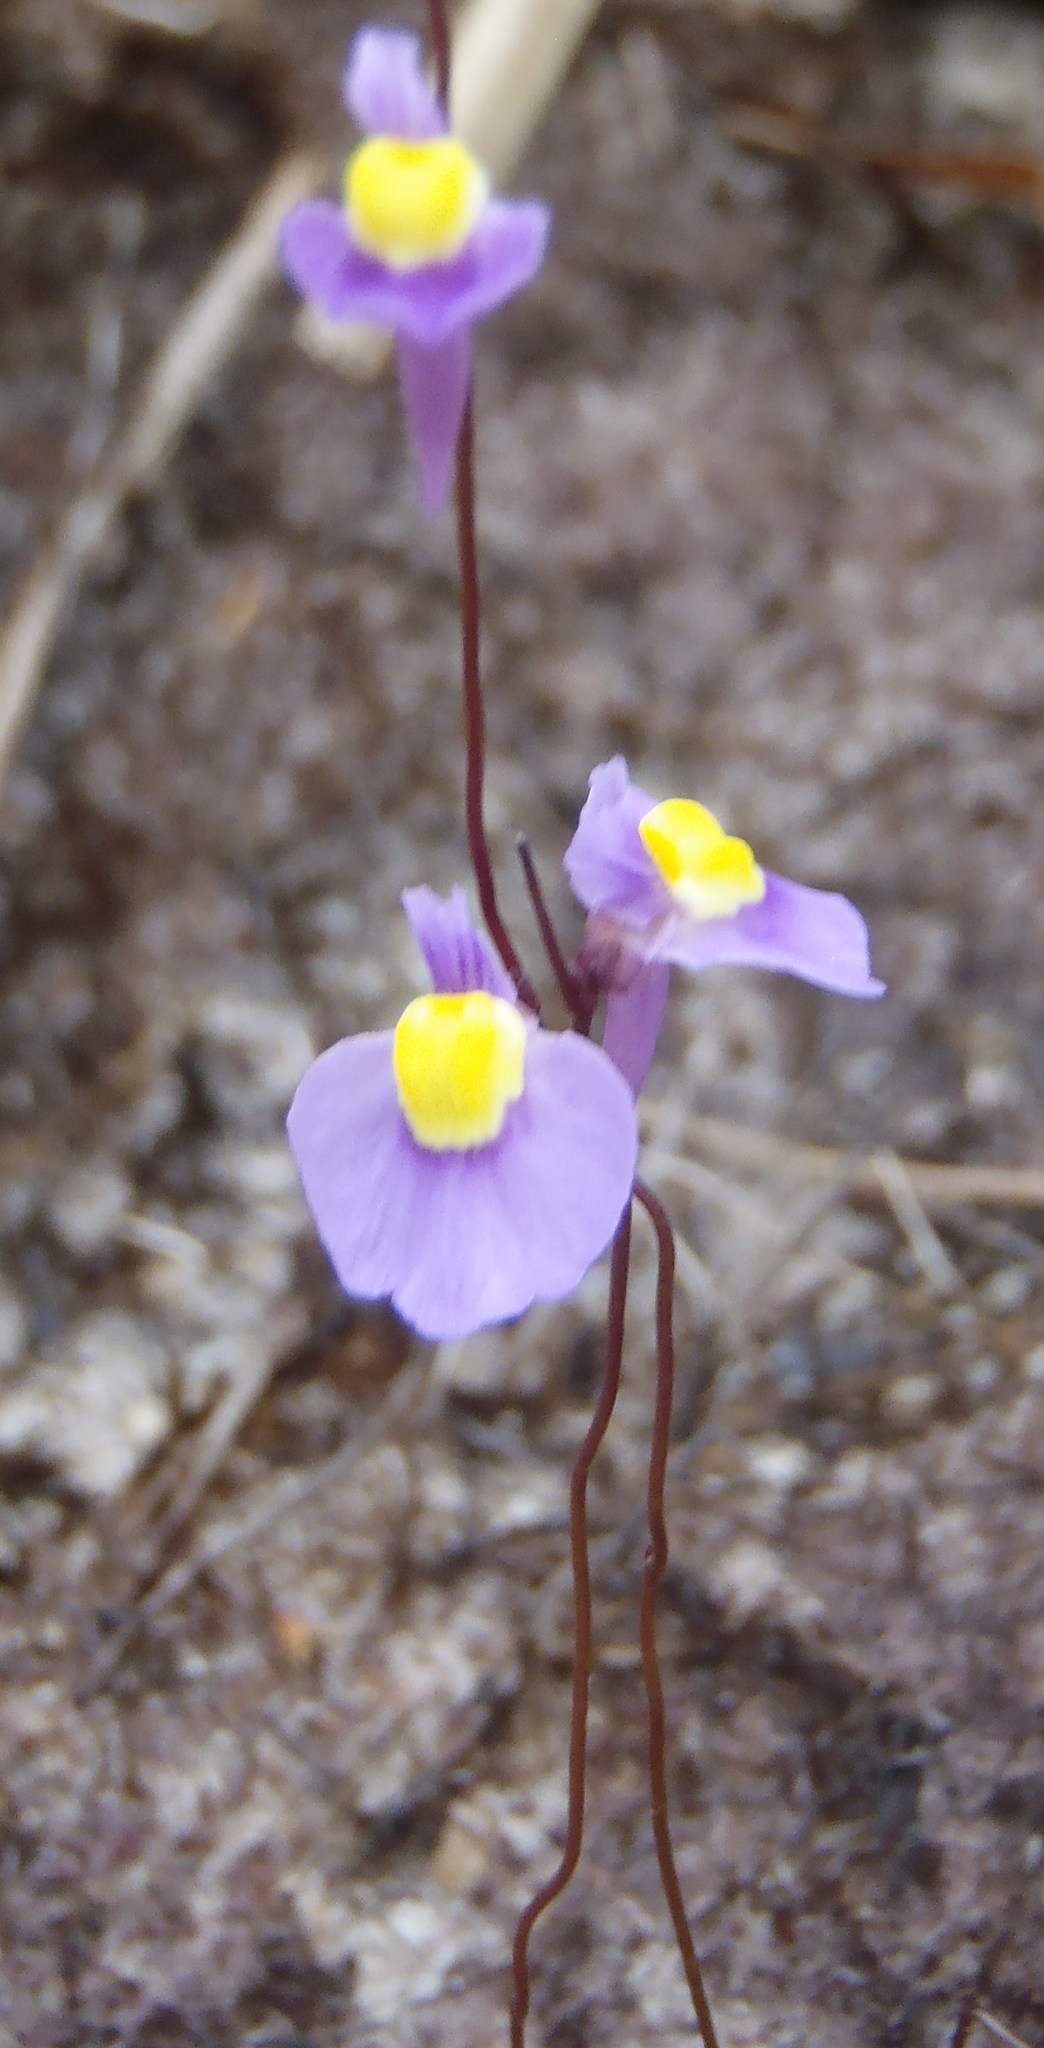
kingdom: Plantae
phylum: Tracheophyta
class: Magnoliopsida
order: Lamiales
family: Lentibulariaceae
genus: Utricularia
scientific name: Utricularia bisquamata
